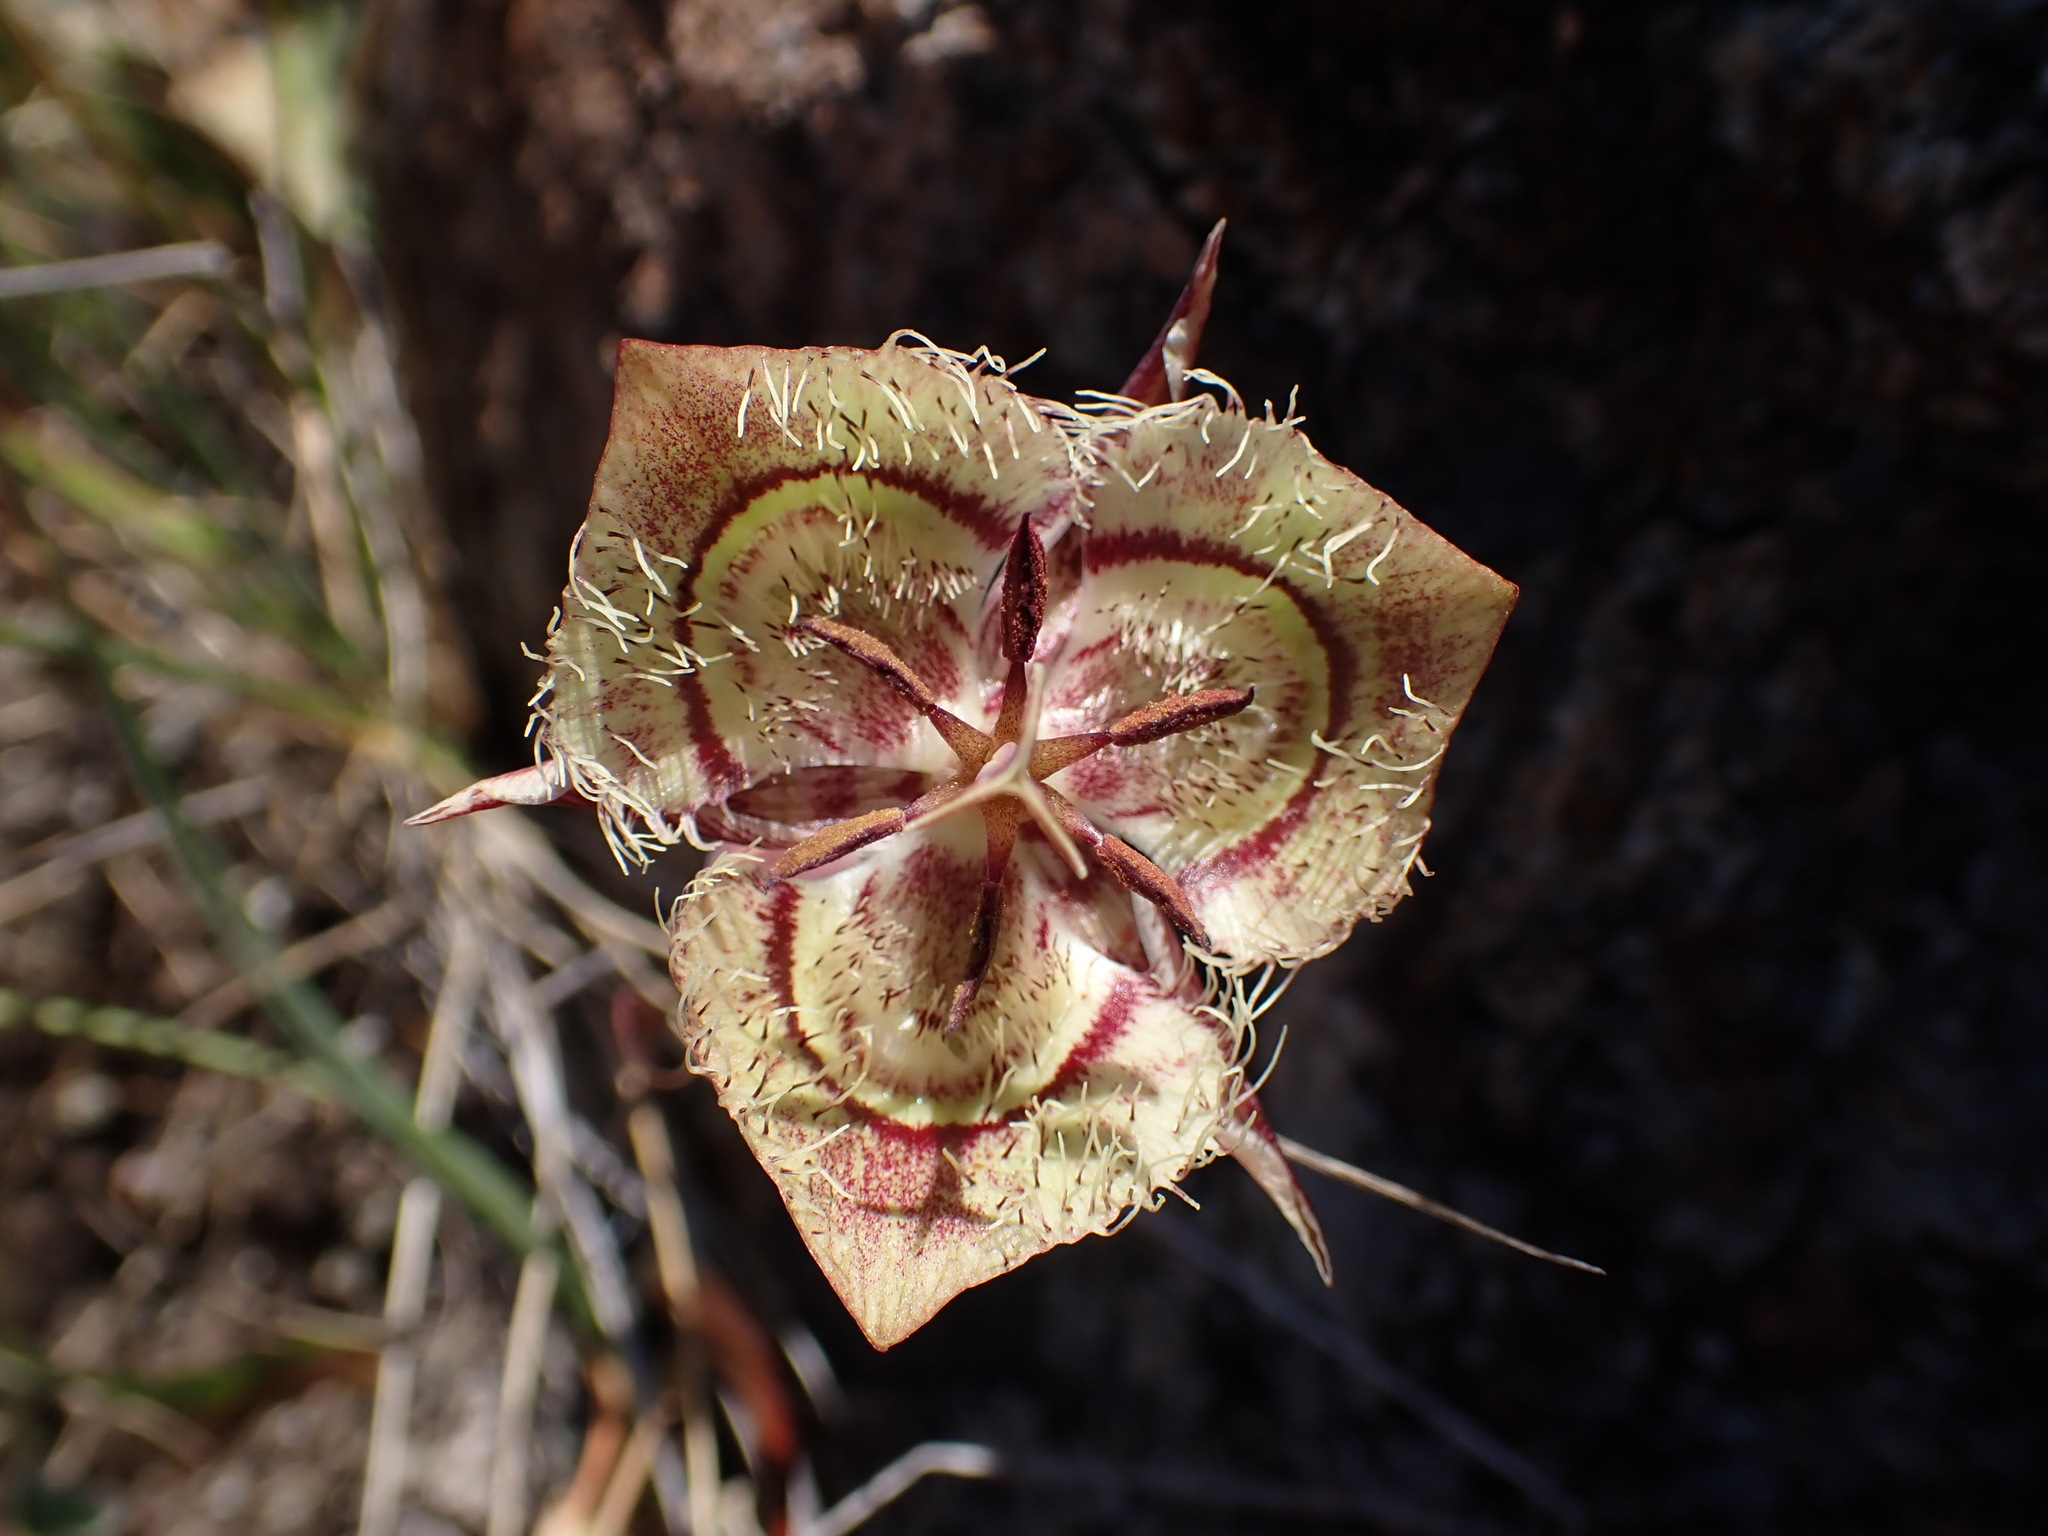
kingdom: Plantae
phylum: Tracheophyta
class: Liliopsida
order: Liliales
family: Liliaceae
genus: Calochortus
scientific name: Calochortus tiburonensis
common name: Tiburon mariposa-lily
